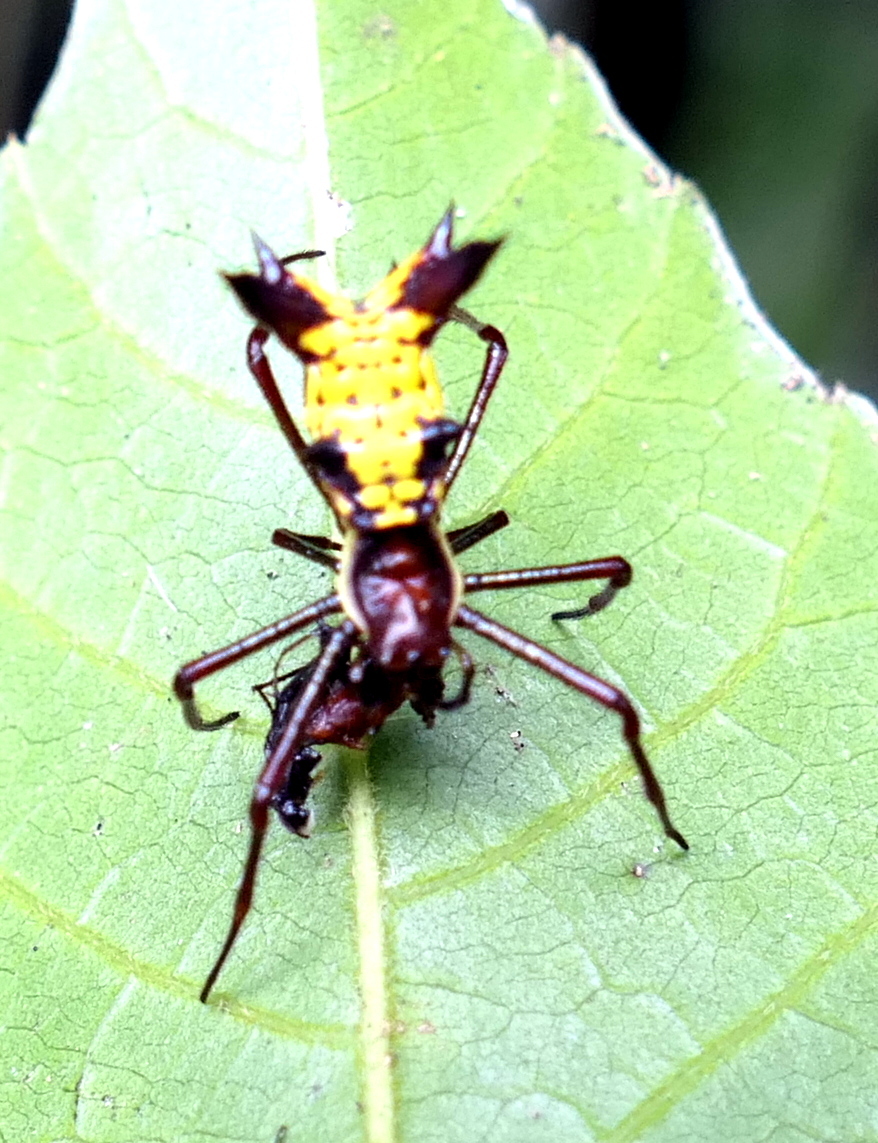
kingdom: Animalia
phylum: Arthropoda
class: Arachnida
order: Araneae
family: Araneidae
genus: Micrathena
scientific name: Micrathena fissispina
